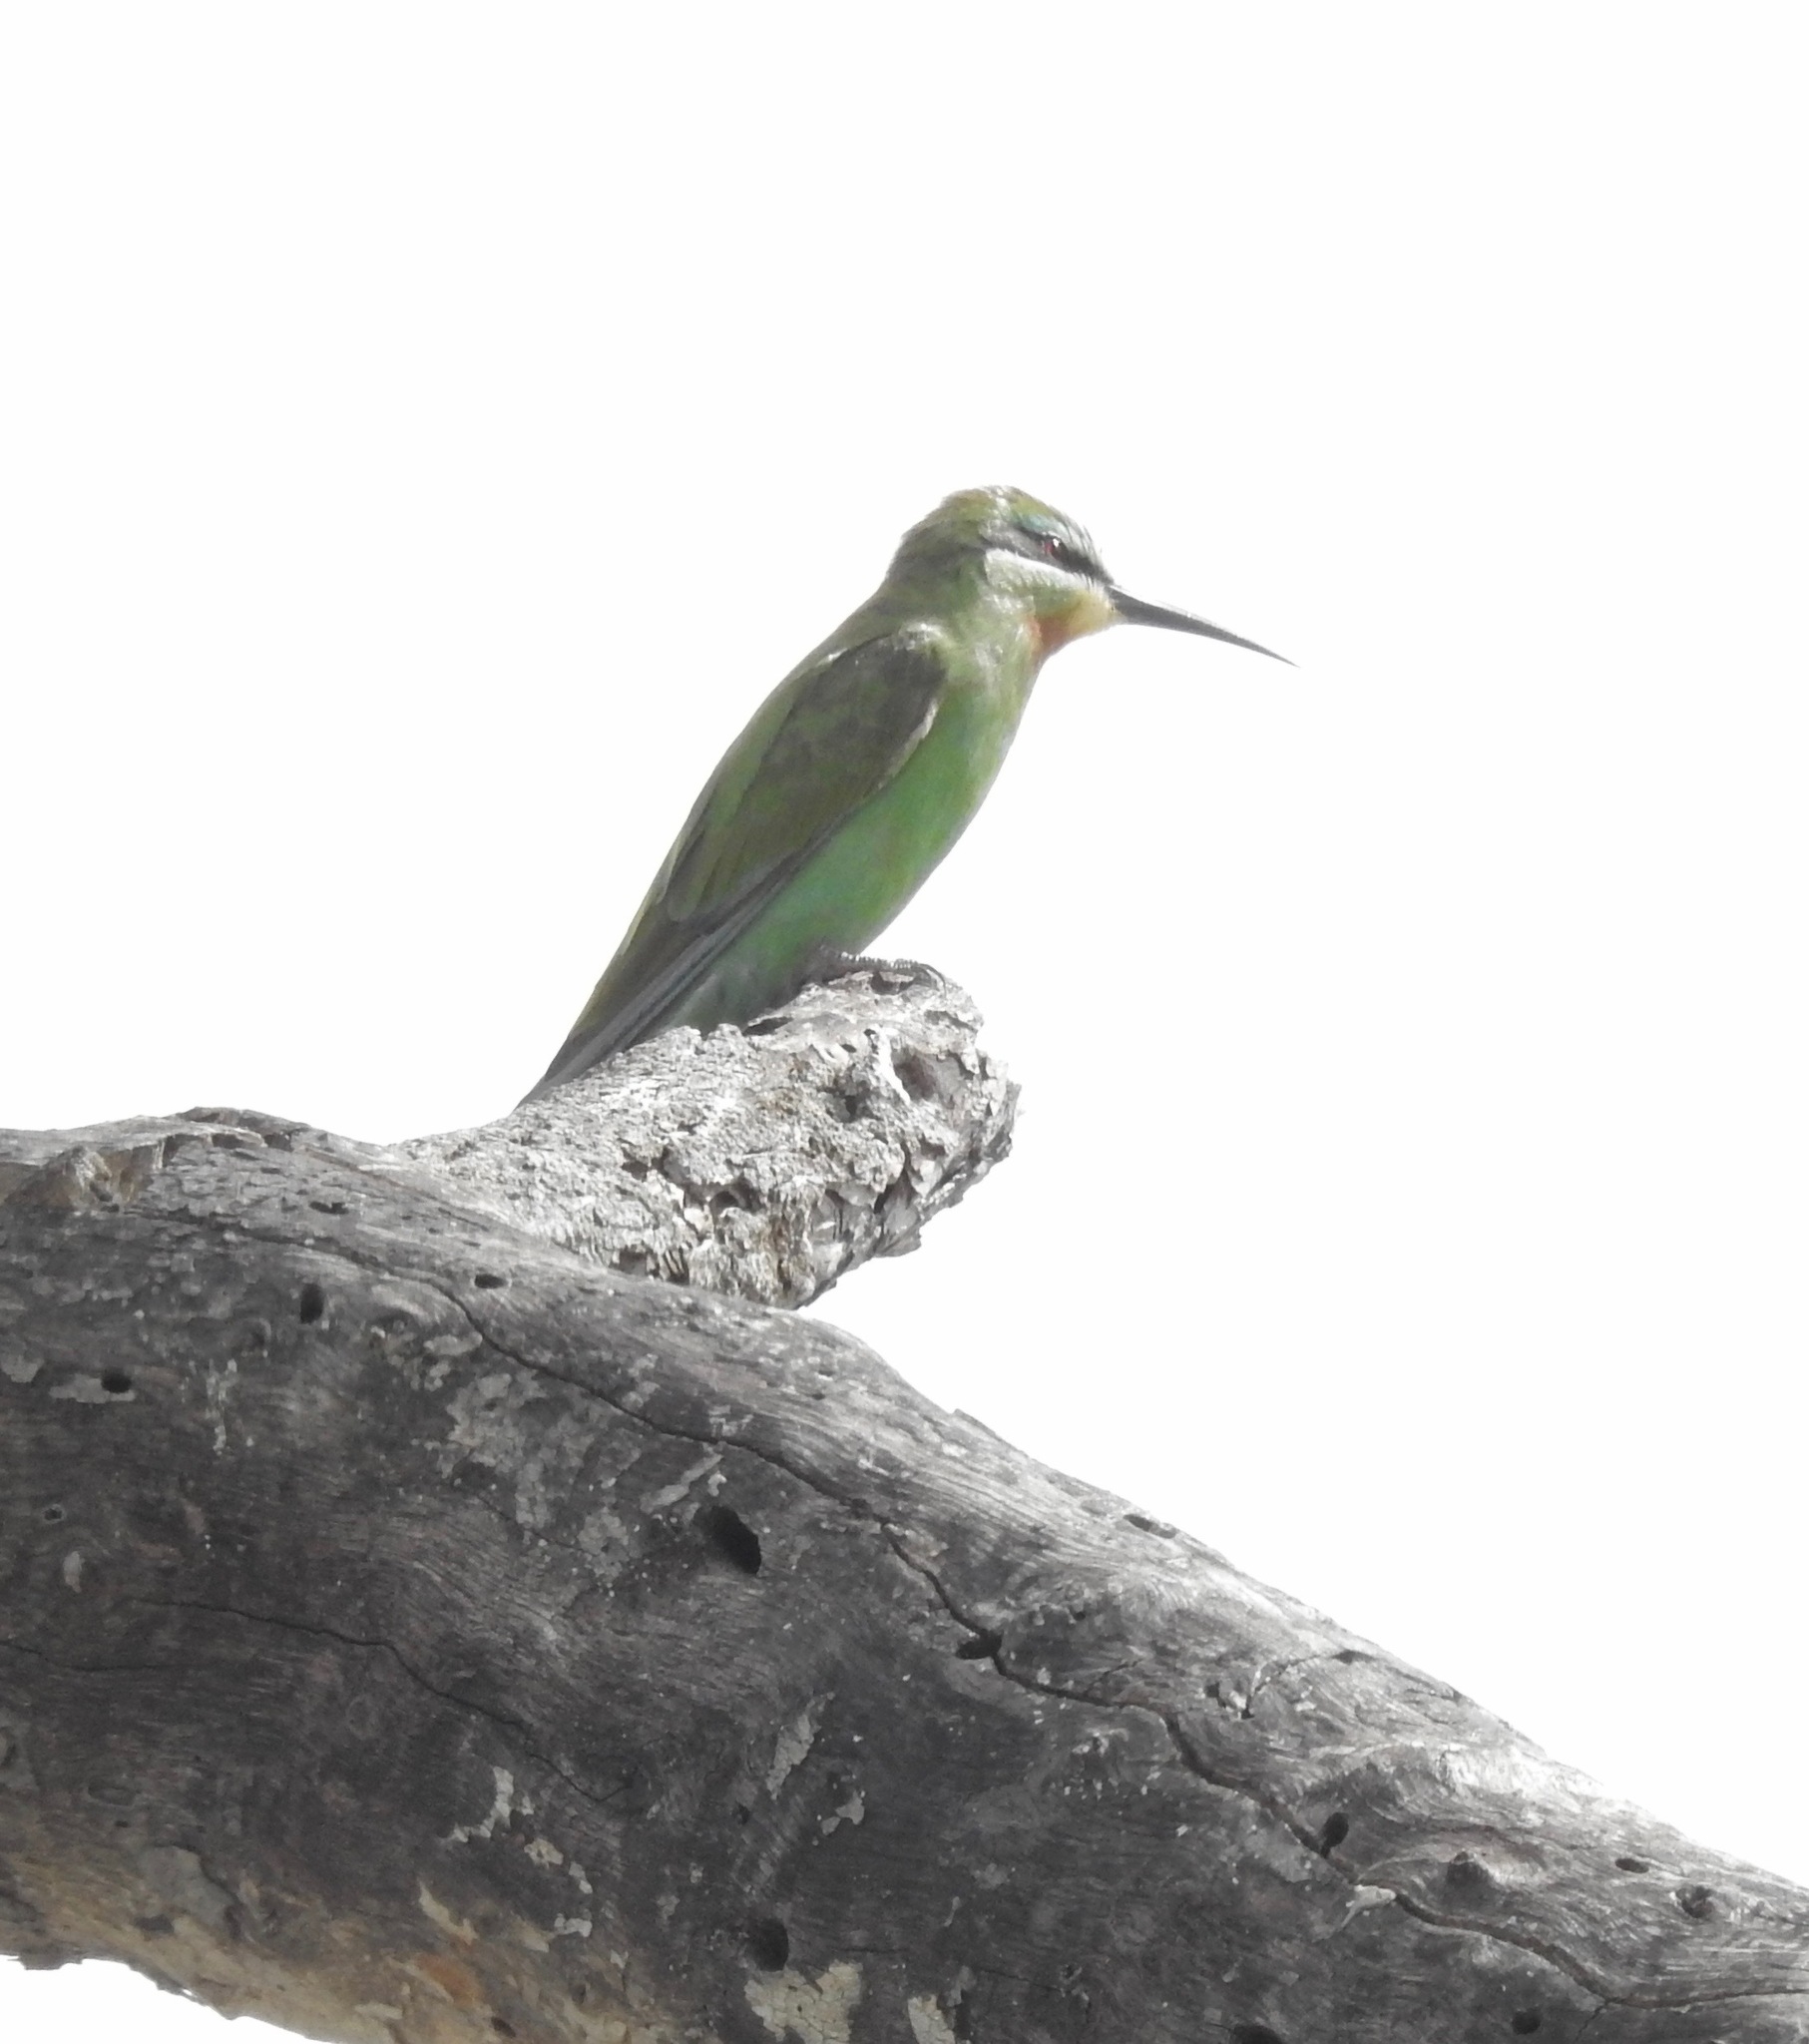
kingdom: Animalia
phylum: Chordata
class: Aves
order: Coraciiformes
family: Meropidae
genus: Merops
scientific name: Merops persicus
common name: Blue-cheeked bee-eater
